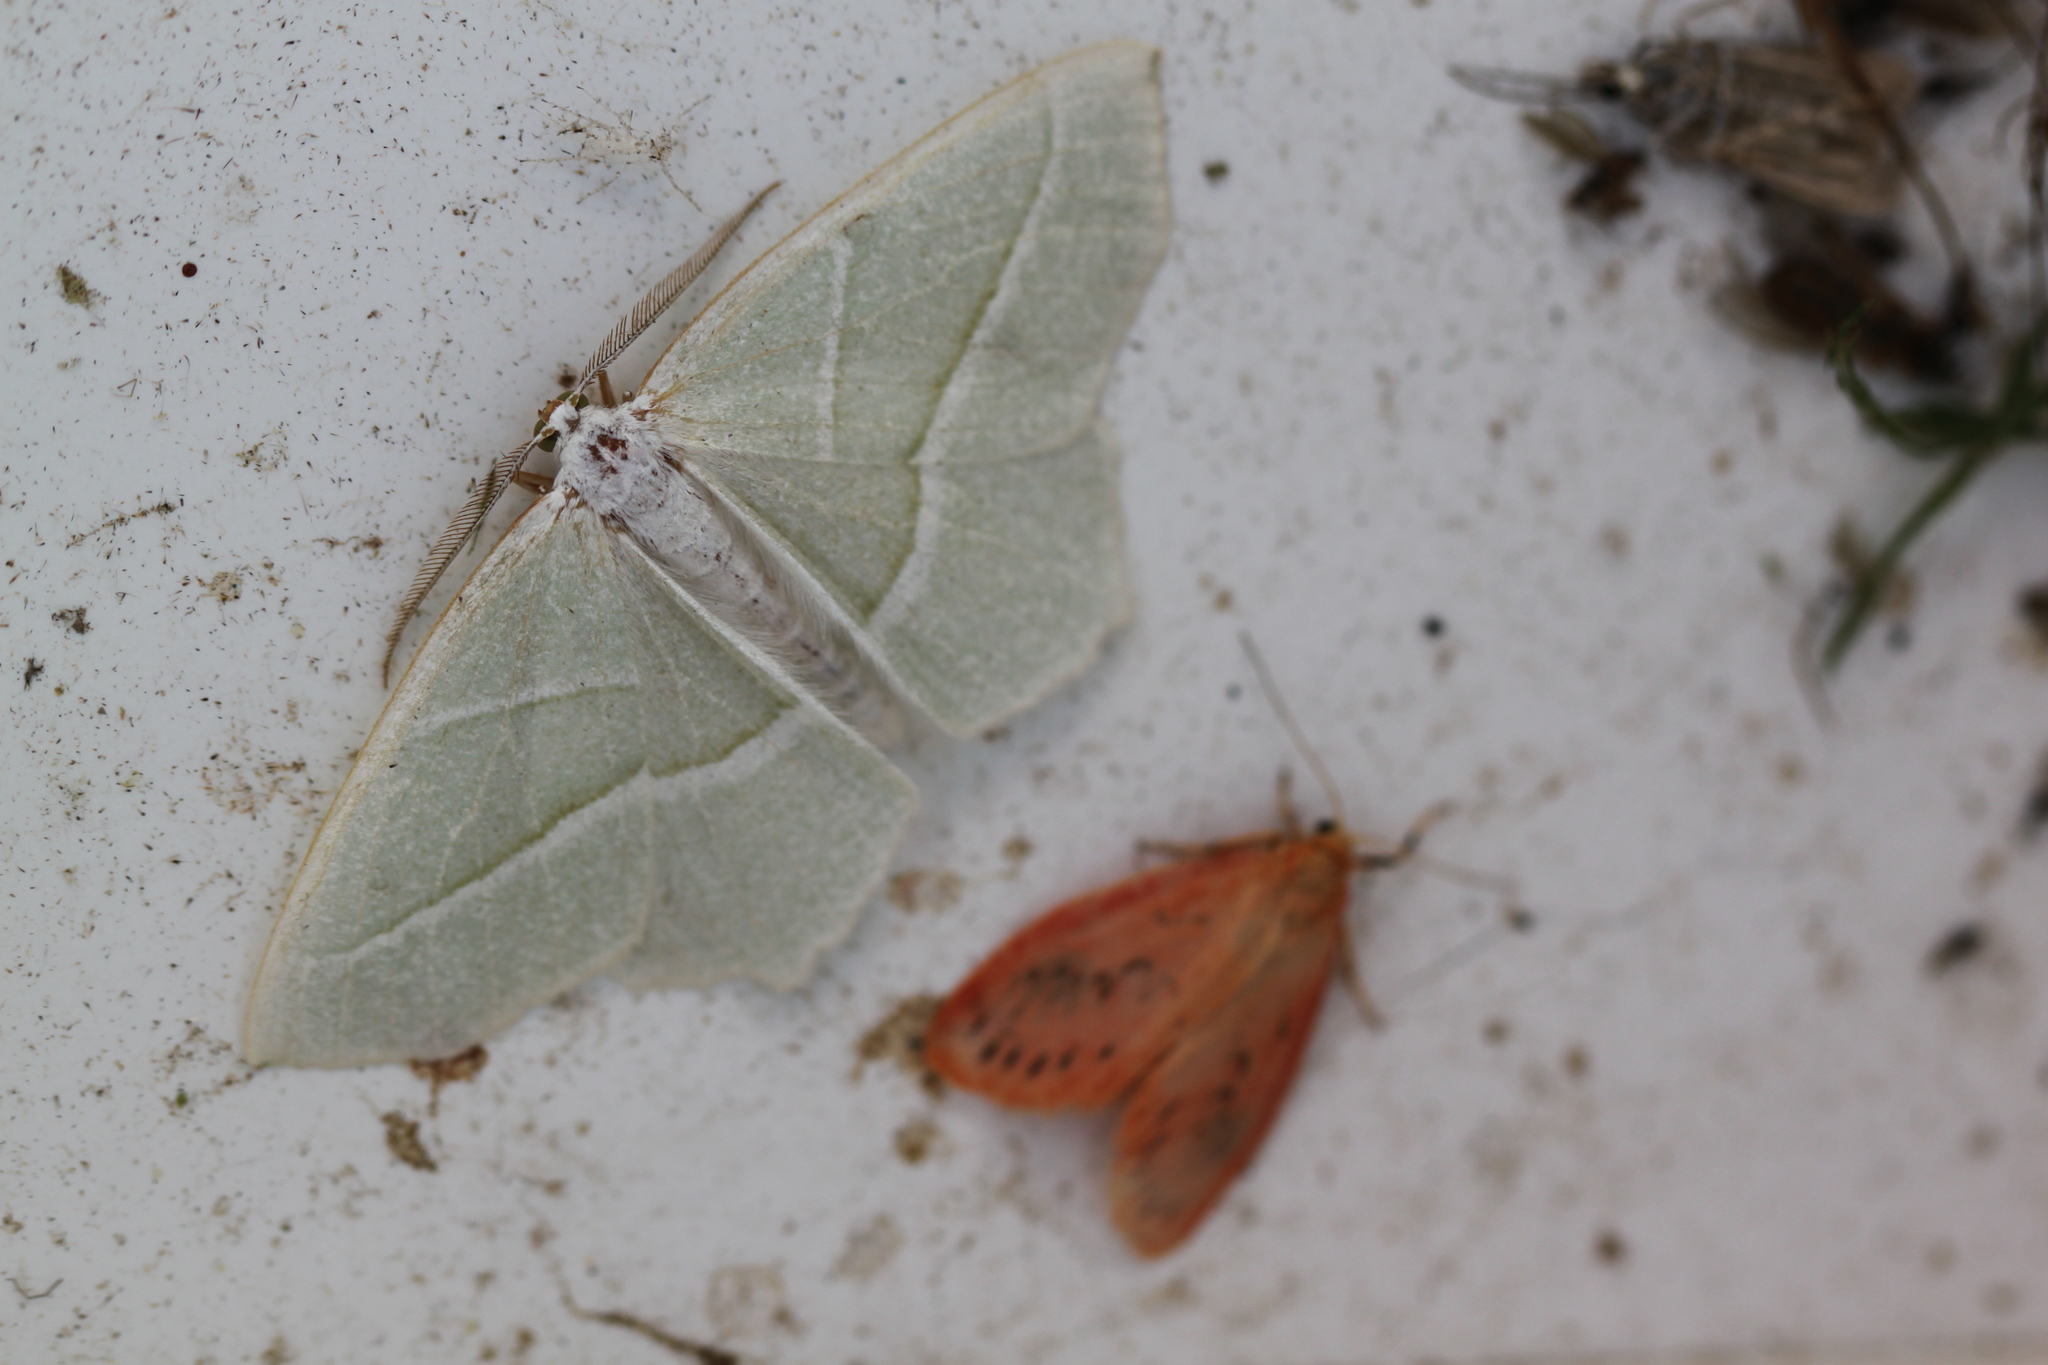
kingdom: Animalia
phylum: Arthropoda
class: Insecta
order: Lepidoptera
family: Geometridae
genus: Campaea
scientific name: Campaea margaritaria
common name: Light emerald
